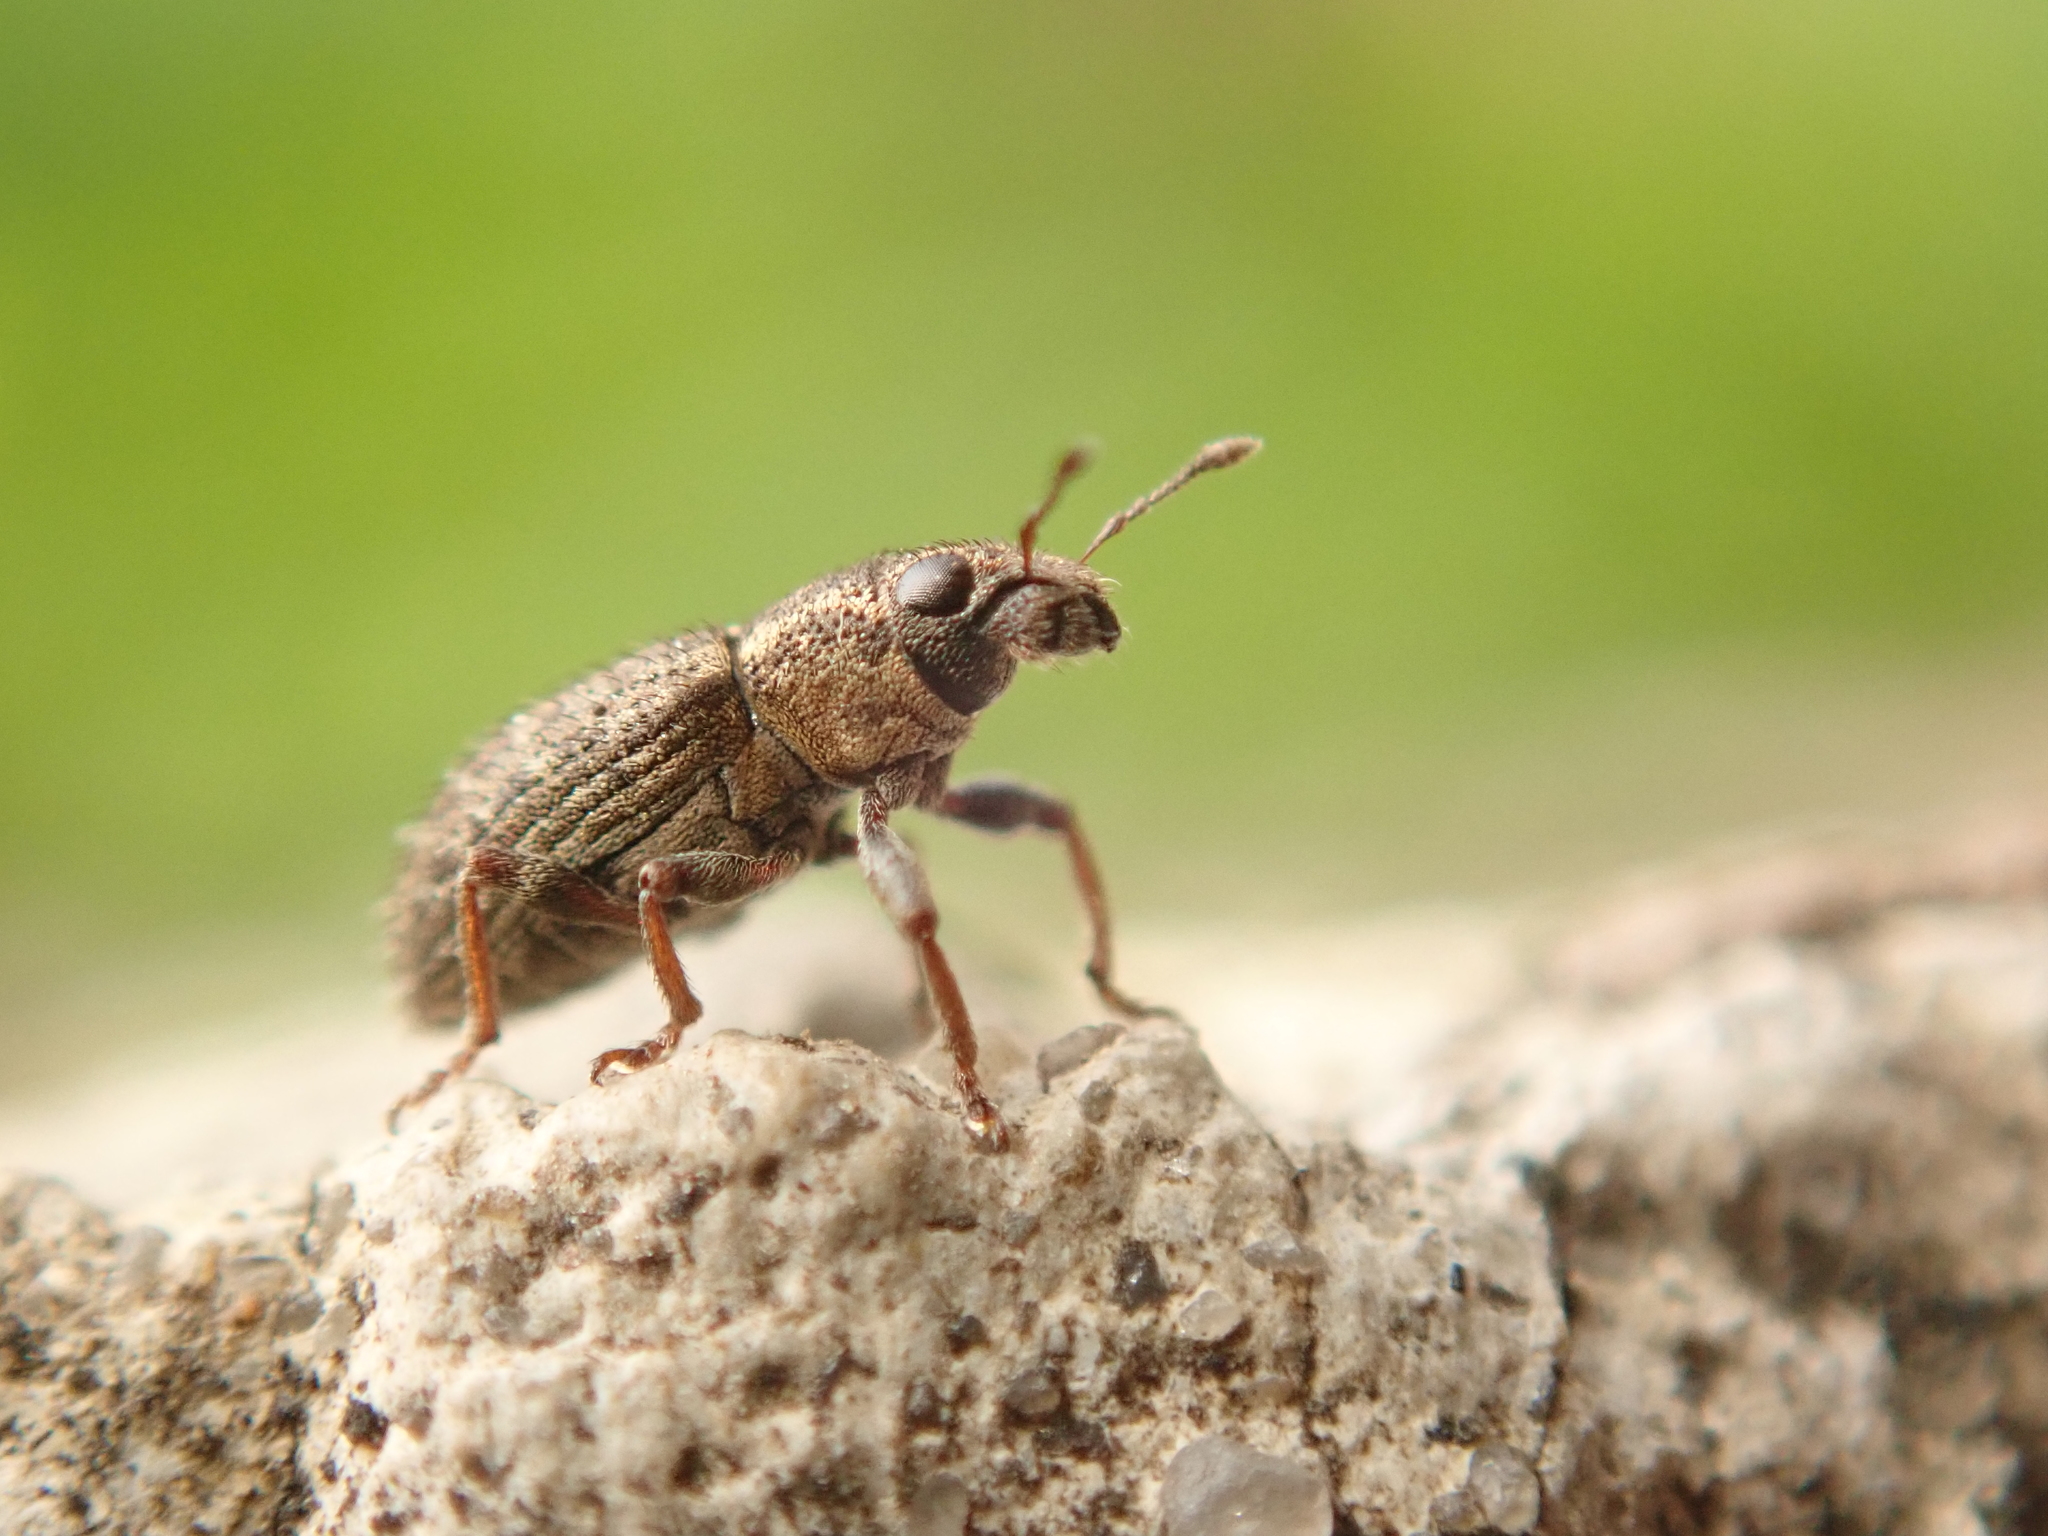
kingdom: Animalia
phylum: Arthropoda
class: Insecta
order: Coleoptera
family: Curculionidae
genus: Sitona
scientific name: Sitona hispidulus
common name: Clover weevil
